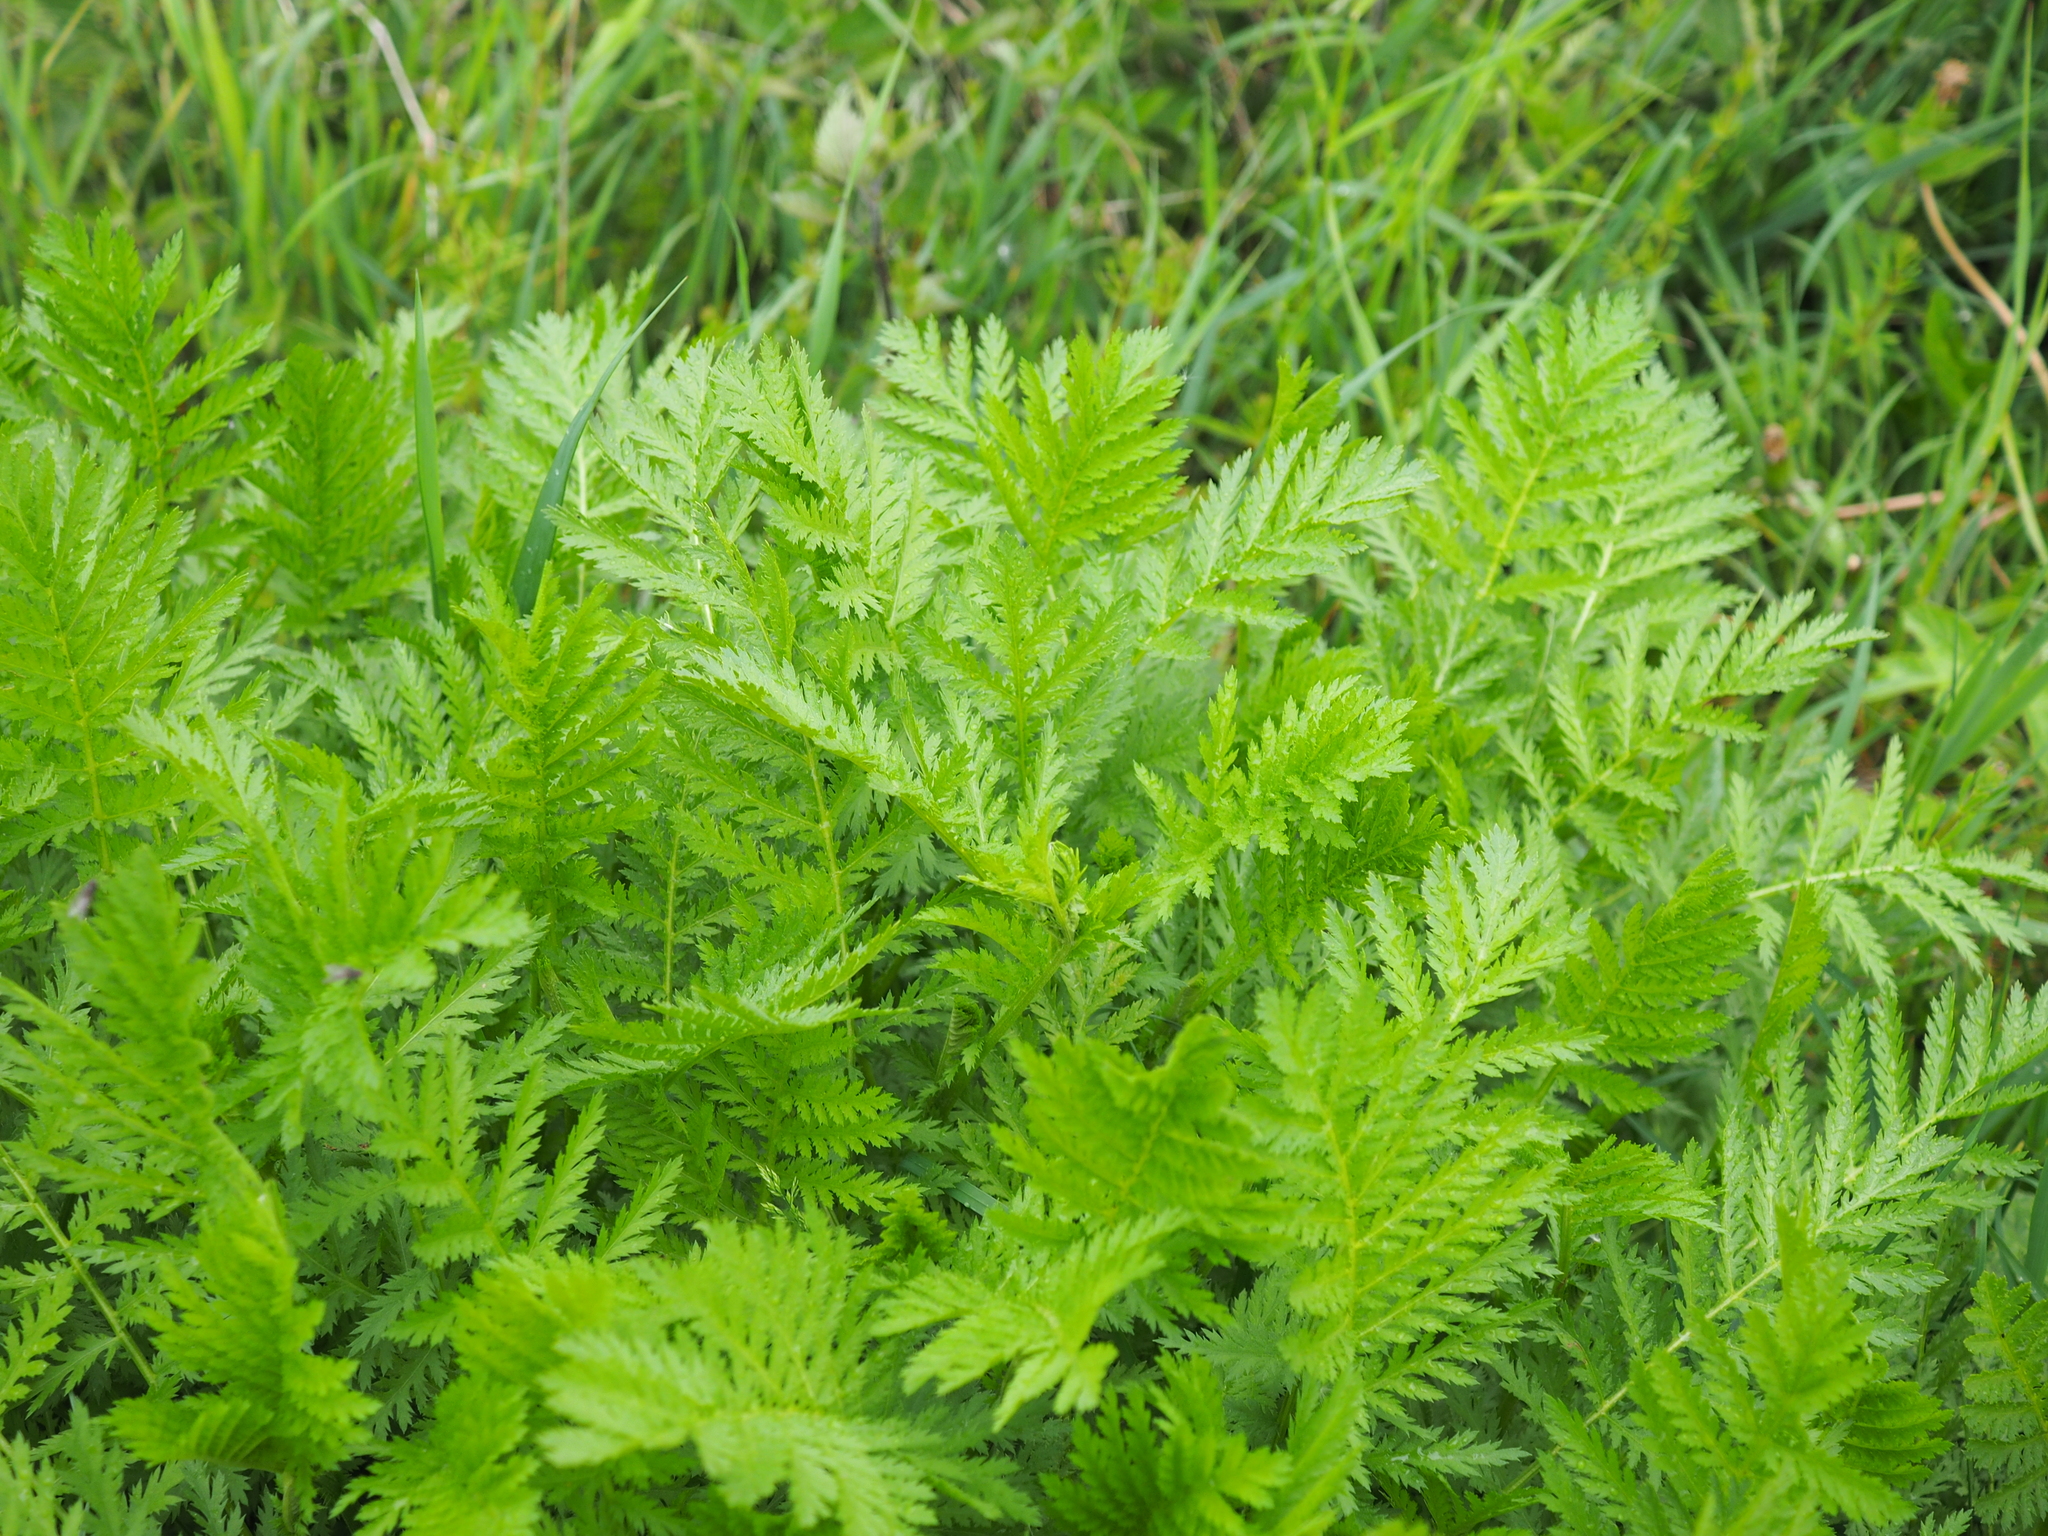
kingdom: Plantae
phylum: Tracheophyta
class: Magnoliopsida
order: Asterales
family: Asteraceae
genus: Tanacetum
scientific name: Tanacetum vulgare
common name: Common tansy
